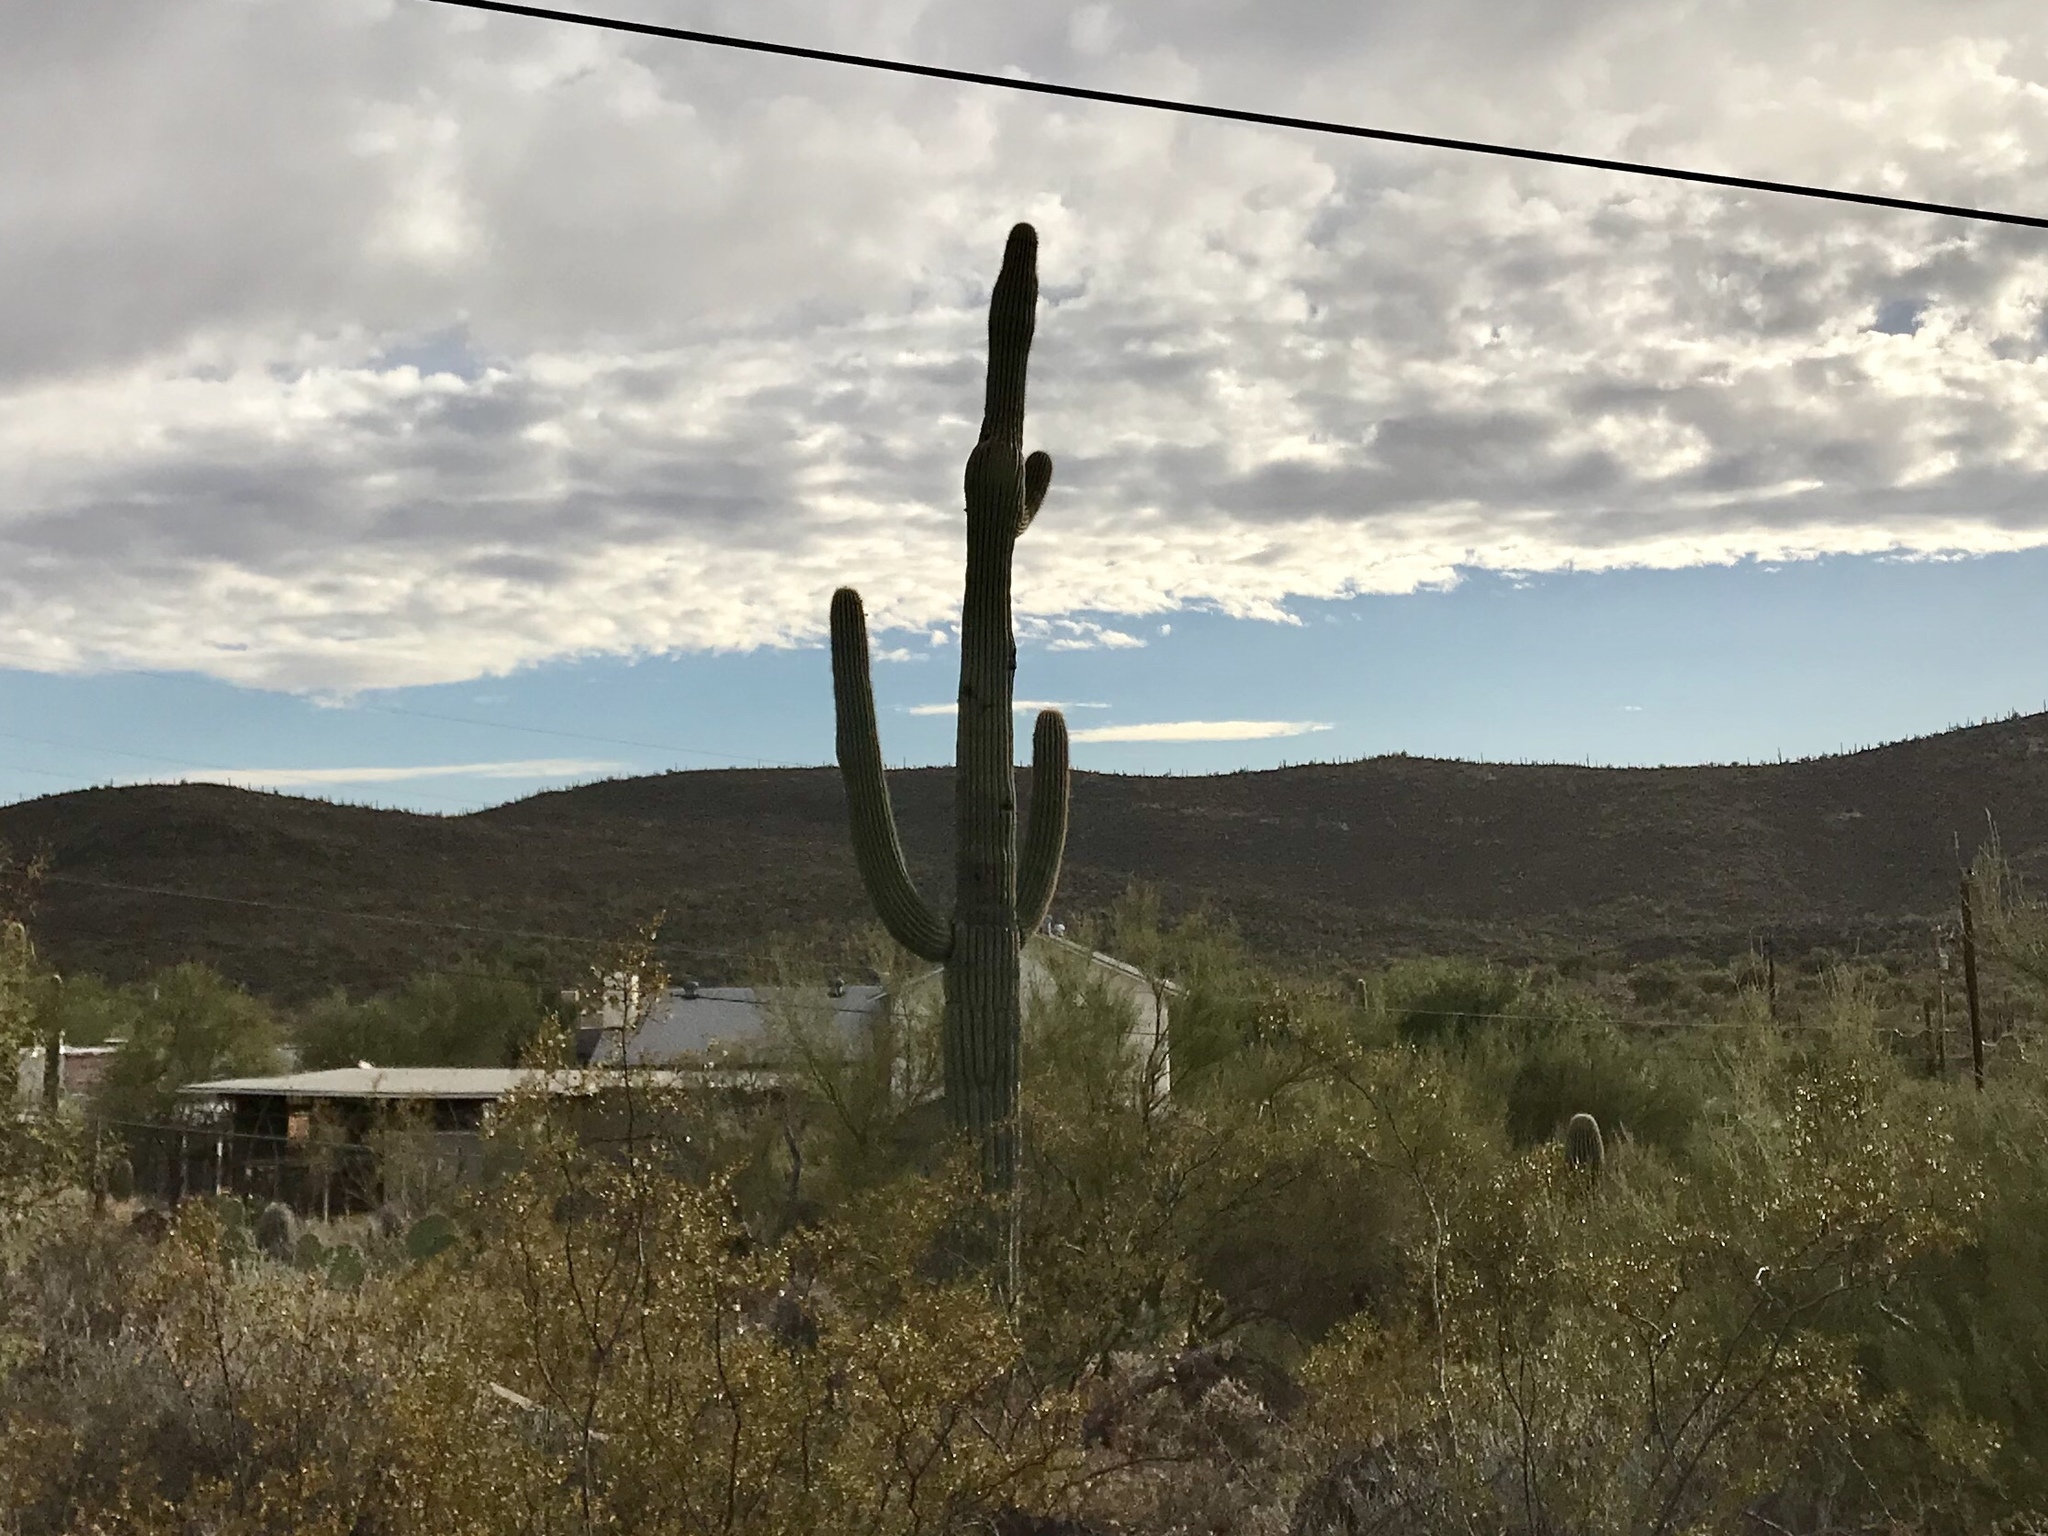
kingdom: Plantae
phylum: Tracheophyta
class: Magnoliopsida
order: Caryophyllales
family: Cactaceae
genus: Carnegiea
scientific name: Carnegiea gigantea
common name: Saguaro
